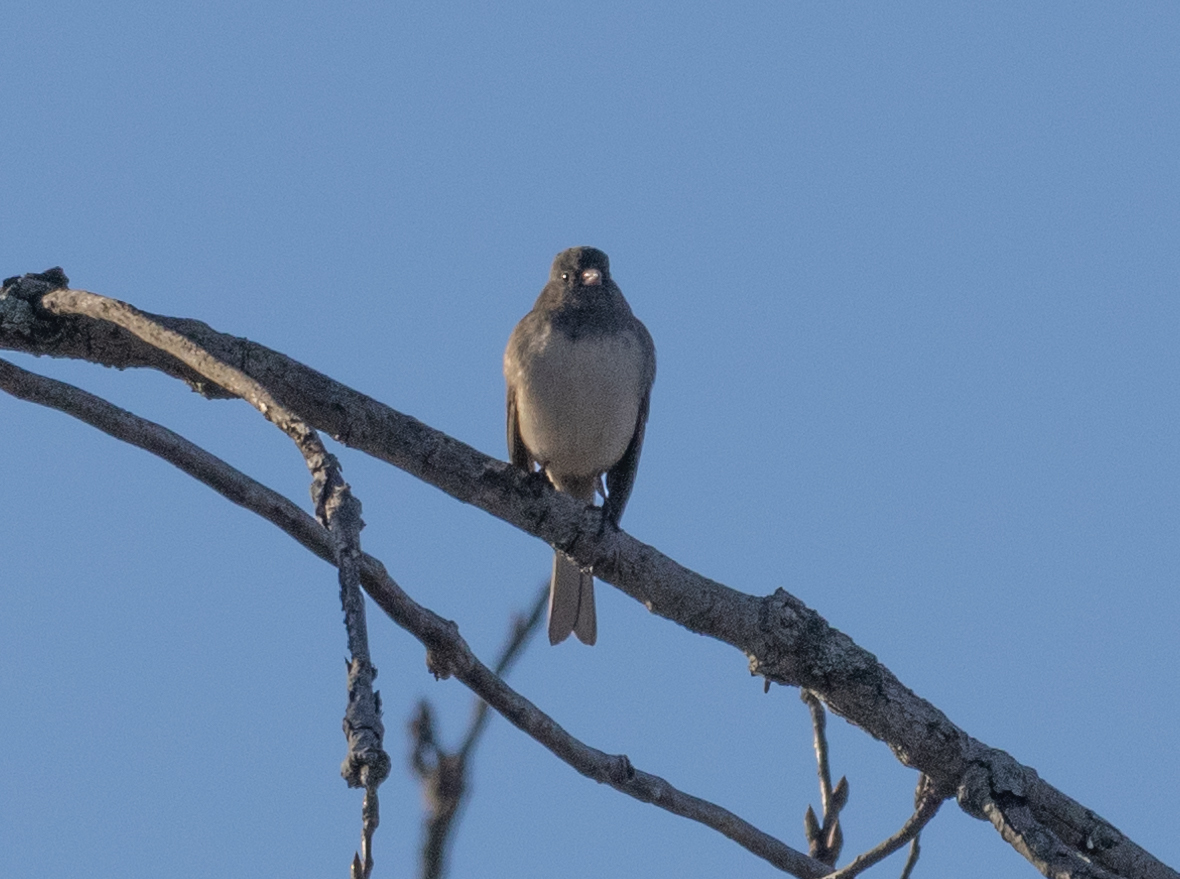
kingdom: Animalia
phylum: Chordata
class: Aves
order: Passeriformes
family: Passerellidae
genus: Junco
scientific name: Junco hyemalis
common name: Dark-eyed junco
